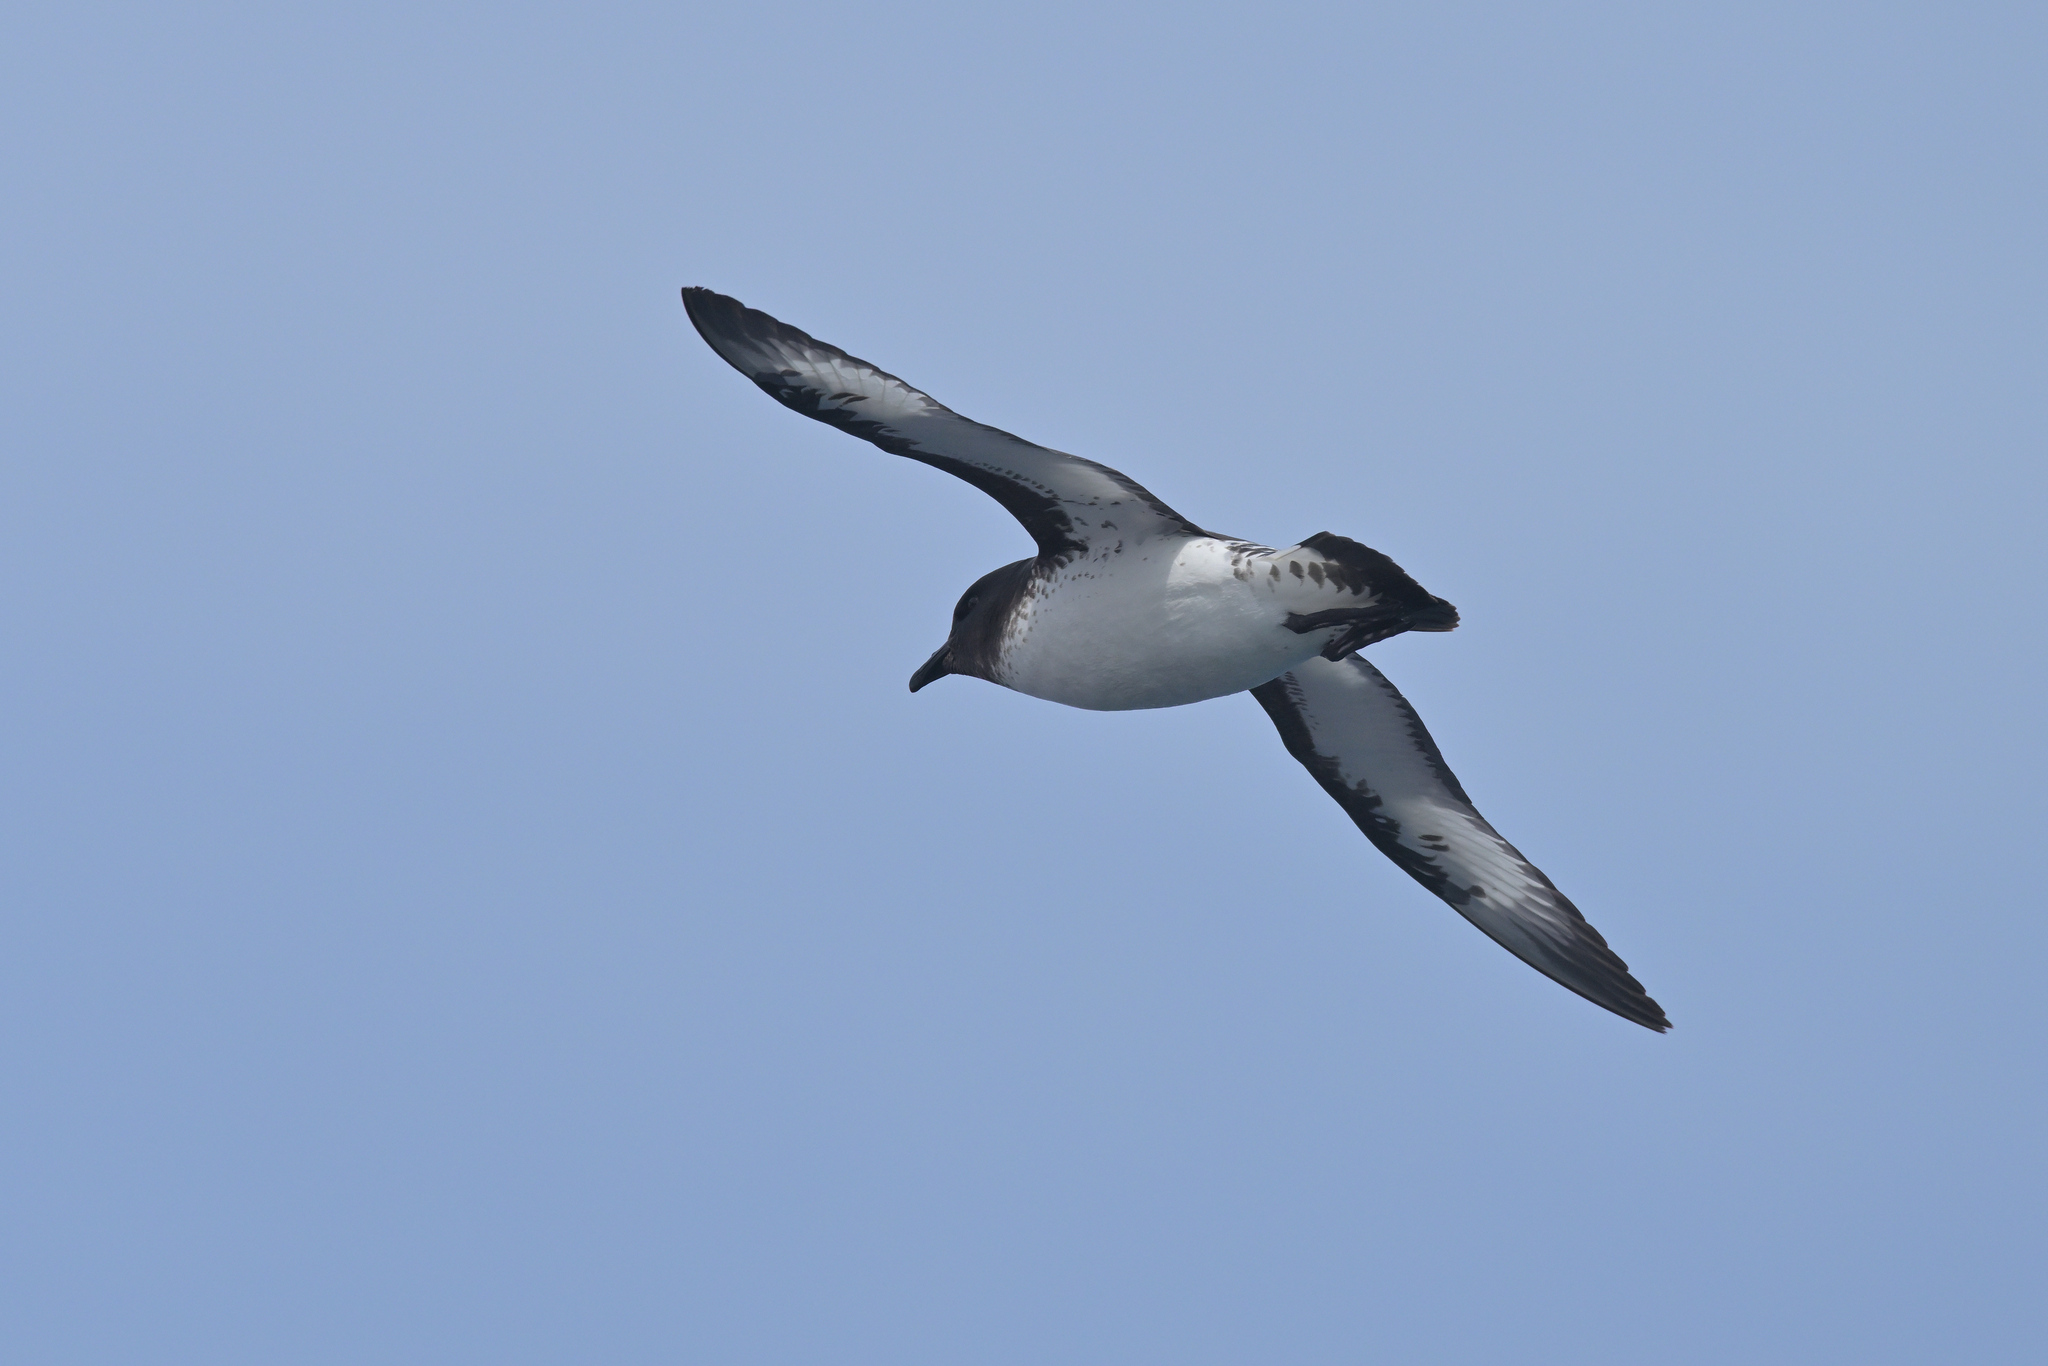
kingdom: Animalia
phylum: Chordata
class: Aves
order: Procellariiformes
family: Procellariidae
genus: Daption
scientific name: Daption capense
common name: Cape petrel
